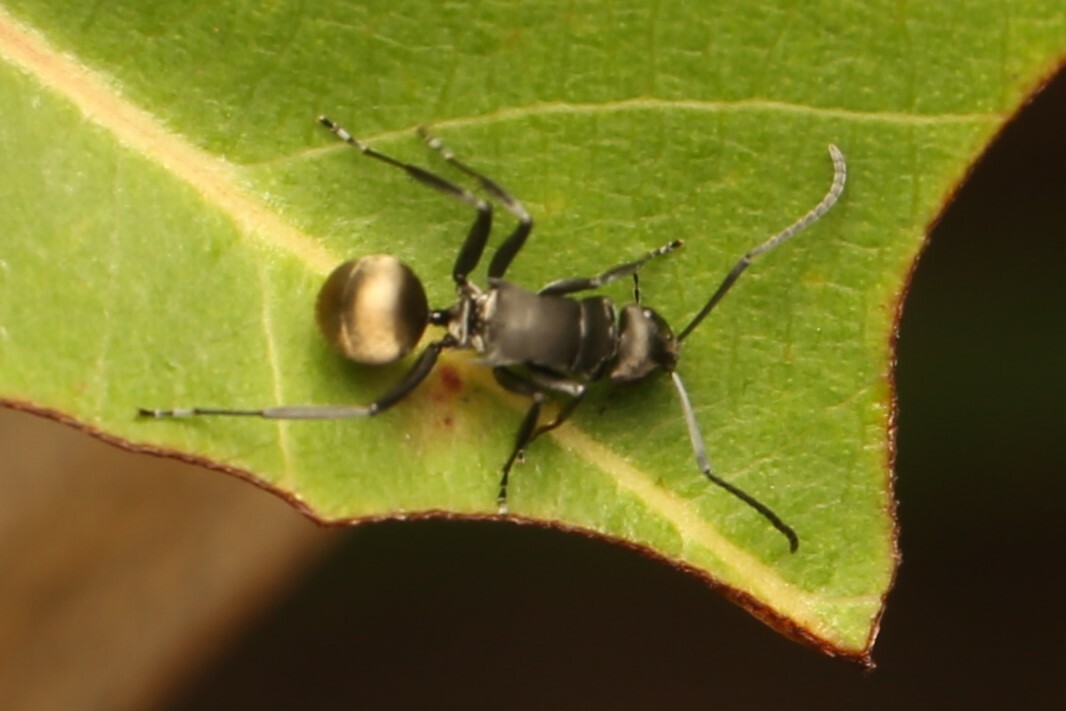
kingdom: Animalia
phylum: Arthropoda
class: Insecta
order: Hymenoptera
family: Formicidae
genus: Polyrhachis
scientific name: Polyrhachis tubifera
